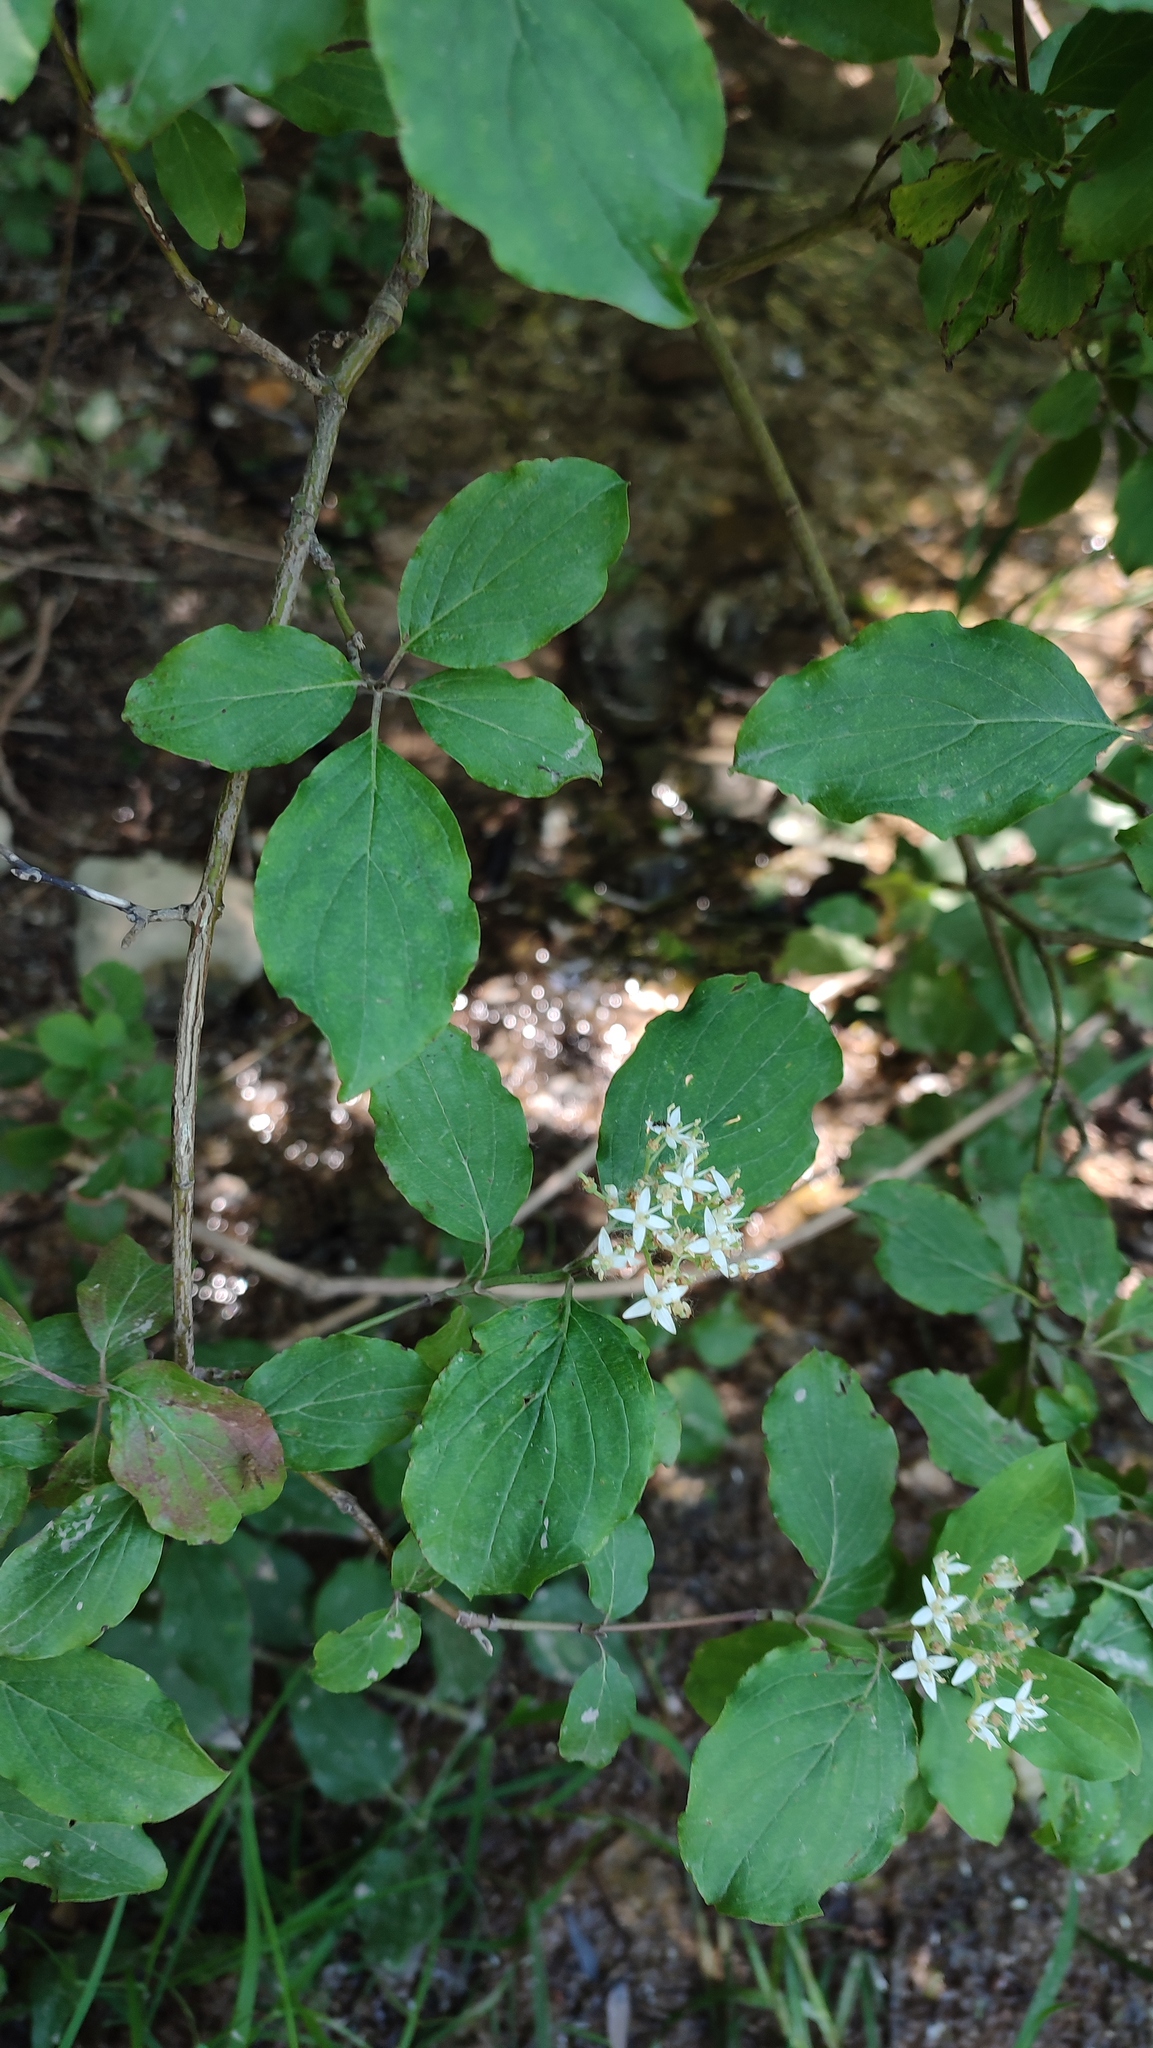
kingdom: Plantae
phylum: Tracheophyta
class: Magnoliopsida
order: Cornales
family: Cornaceae
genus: Cornus
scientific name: Cornus sanguinea
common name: Dogwood
